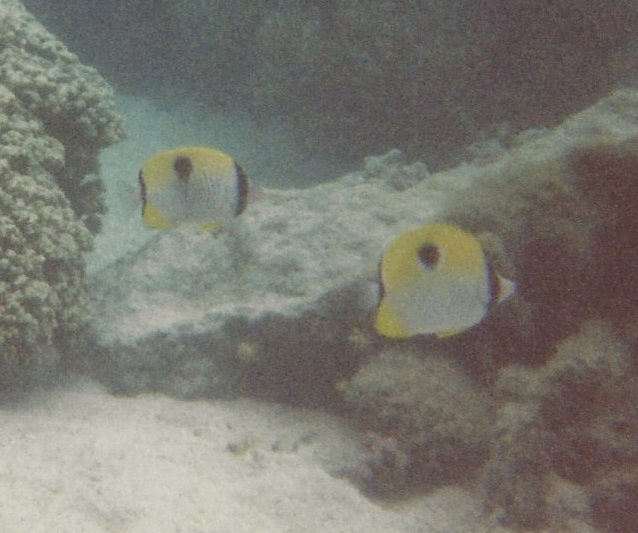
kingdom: Animalia
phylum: Chordata
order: Perciformes
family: Chaetodontidae
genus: Chaetodon
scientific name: Chaetodon unimaculatus
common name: Teardrop butterflyfish
